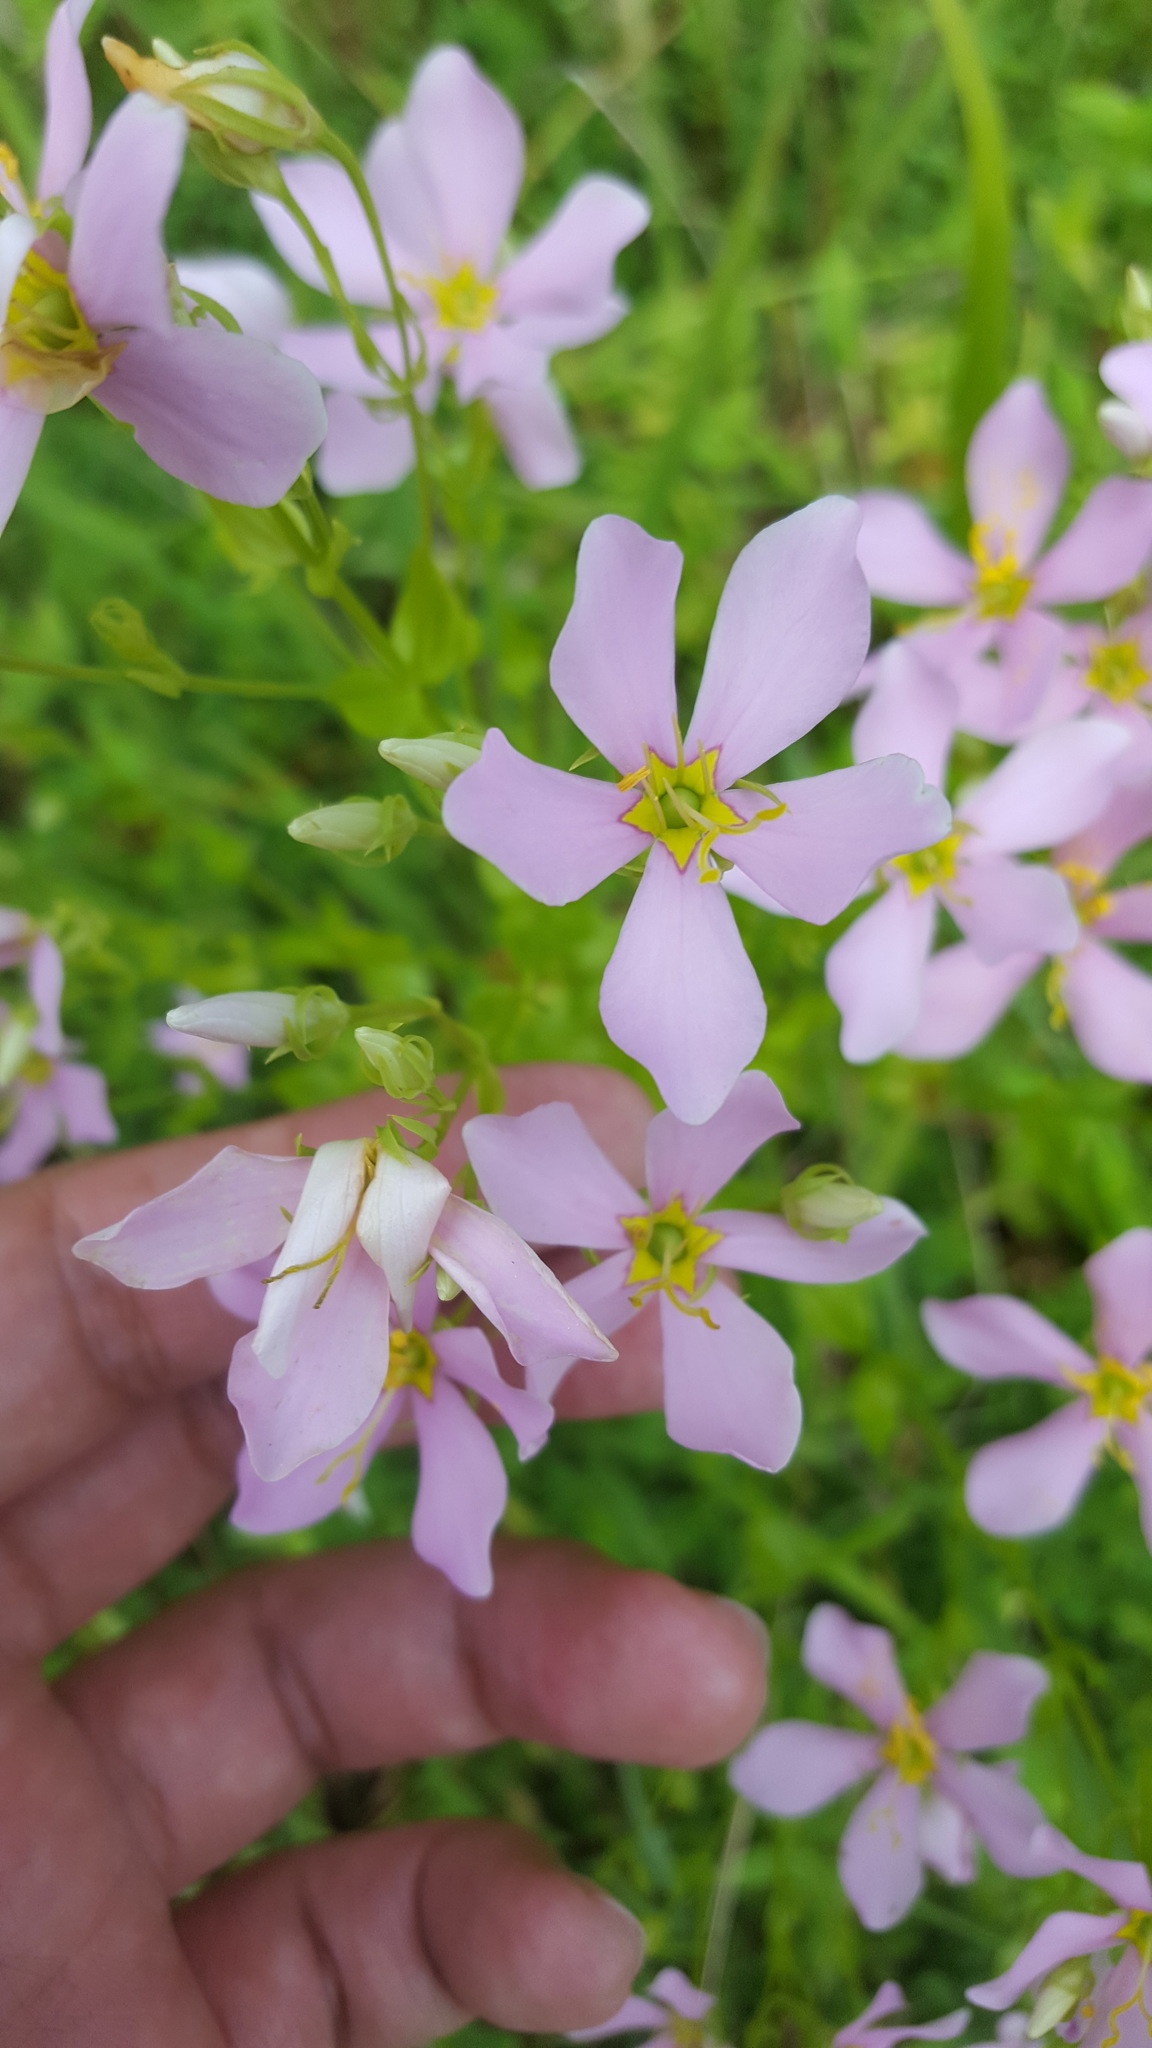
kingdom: Plantae
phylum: Tracheophyta
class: Magnoliopsida
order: Gentianales
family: Gentianaceae
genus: Sabatia
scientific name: Sabatia angularis
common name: Rose-pink
